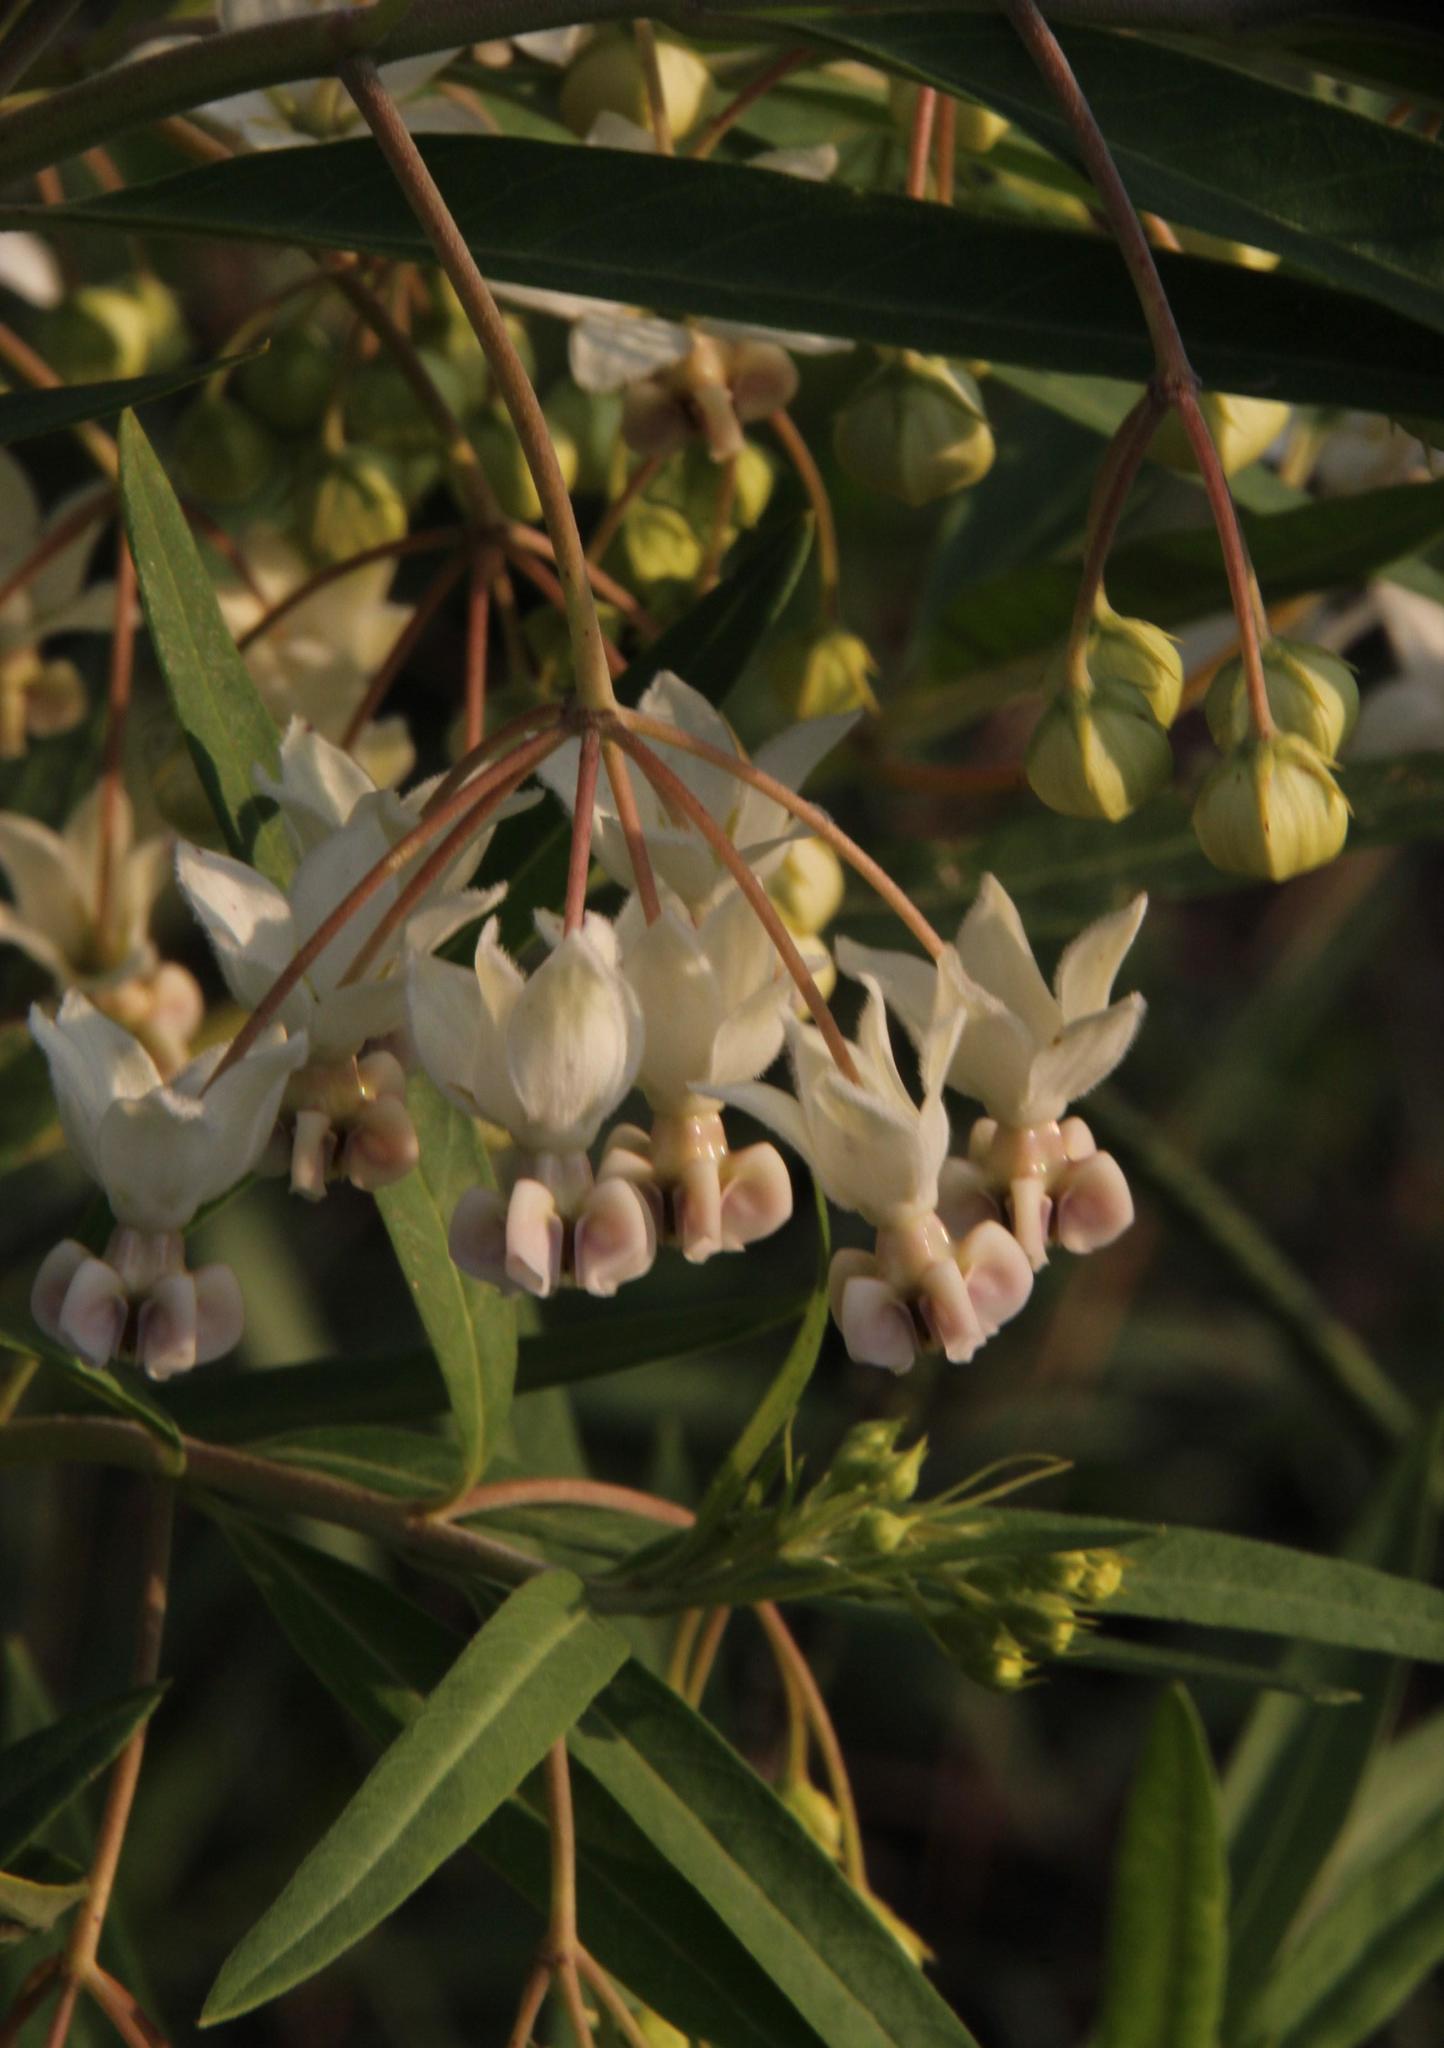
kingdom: Plantae
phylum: Tracheophyta
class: Magnoliopsida
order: Gentianales
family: Apocynaceae
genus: Gomphocarpus
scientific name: Gomphocarpus physocarpus
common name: Balloon cotton bush
